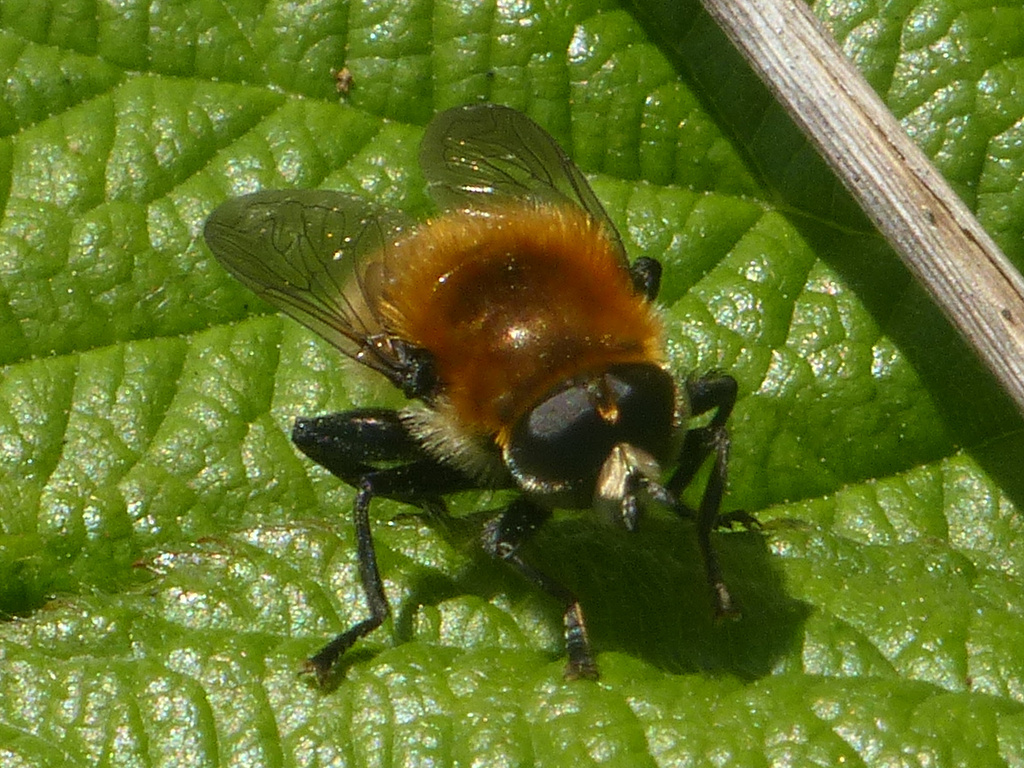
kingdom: Animalia
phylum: Arthropoda
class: Insecta
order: Diptera
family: Syrphidae
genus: Merodon
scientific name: Merodon equestris
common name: Greater bulb-fly
